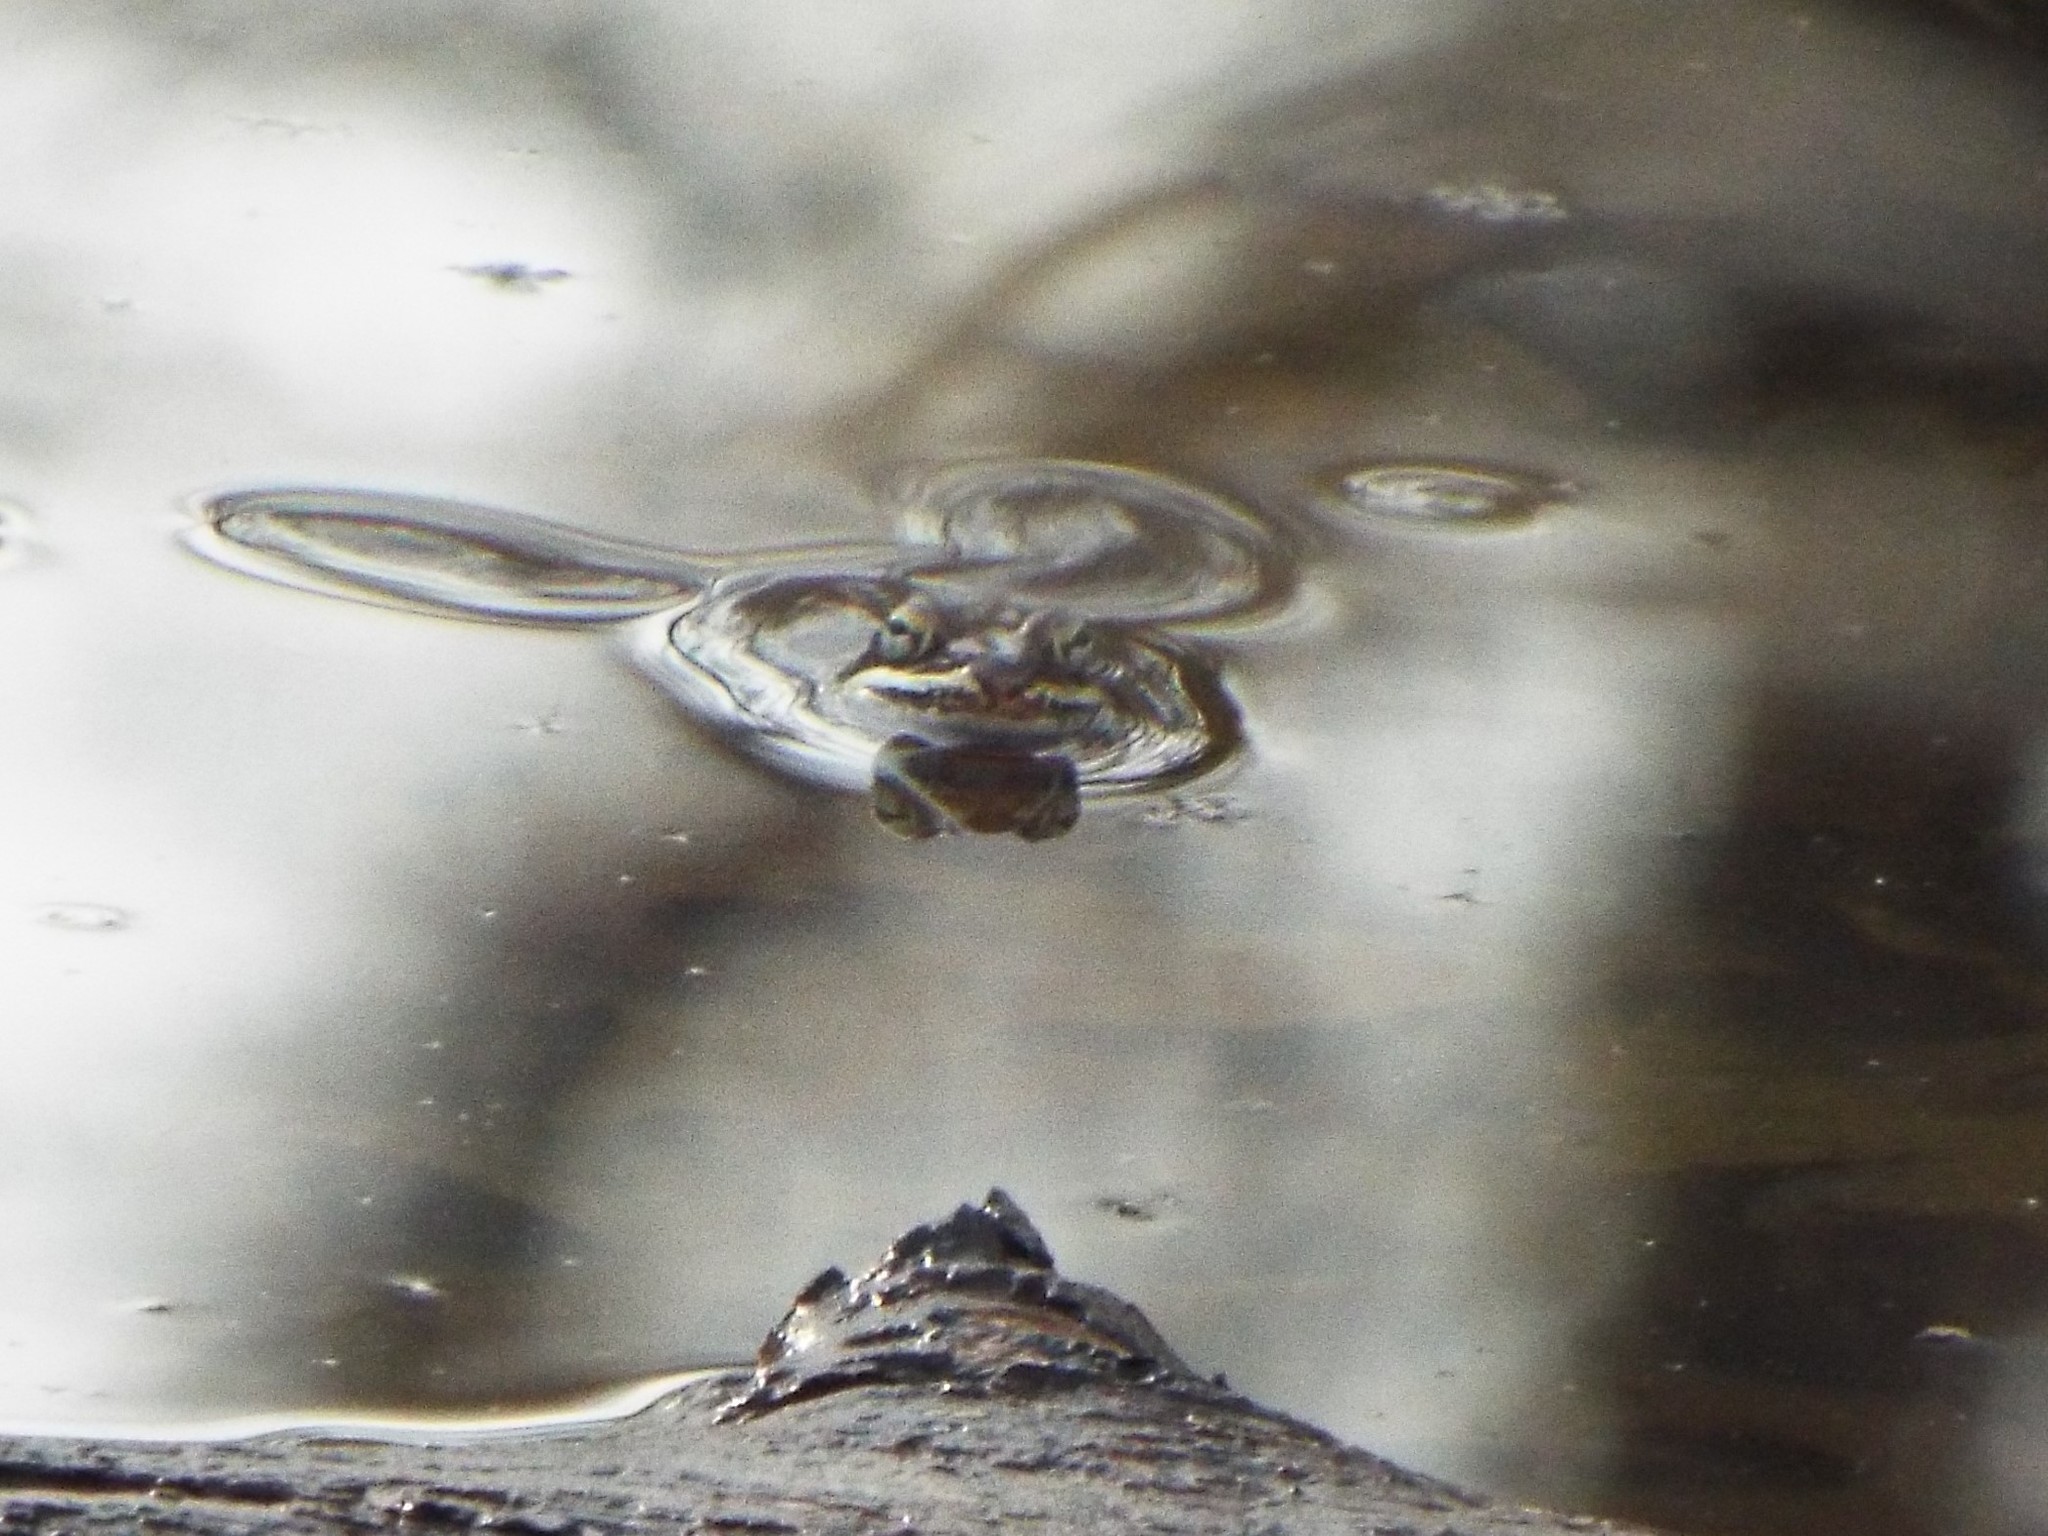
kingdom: Animalia
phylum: Chordata
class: Amphibia
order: Anura
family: Ranidae
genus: Lithobates
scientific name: Lithobates sylvaticus
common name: Wood frog
